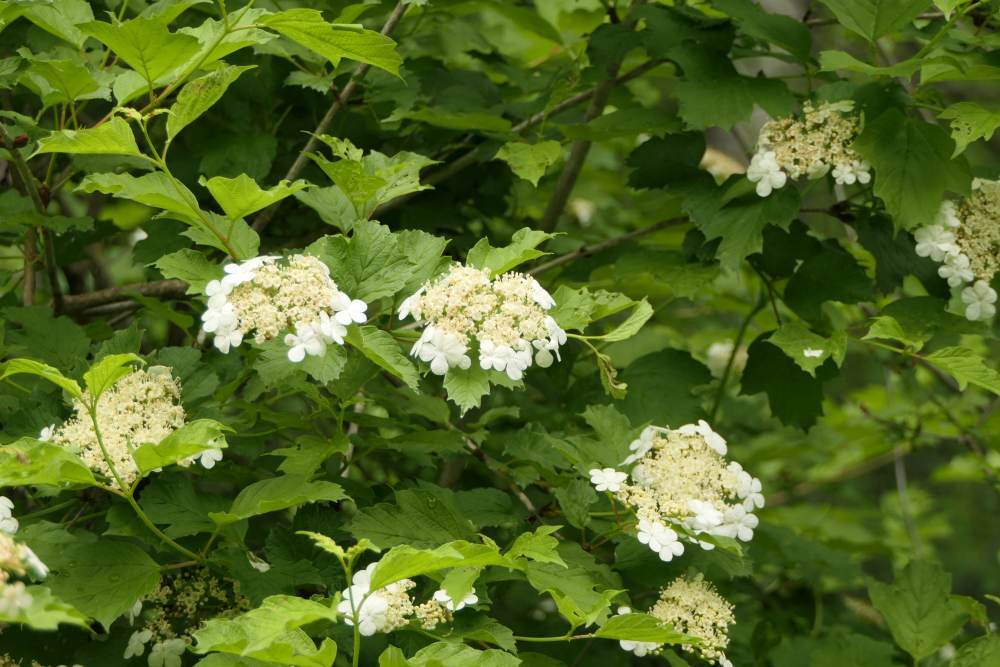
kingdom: Plantae
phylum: Tracheophyta
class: Magnoliopsida
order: Dipsacales
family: Viburnaceae
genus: Viburnum
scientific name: Viburnum opulus
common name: Guelder-rose
